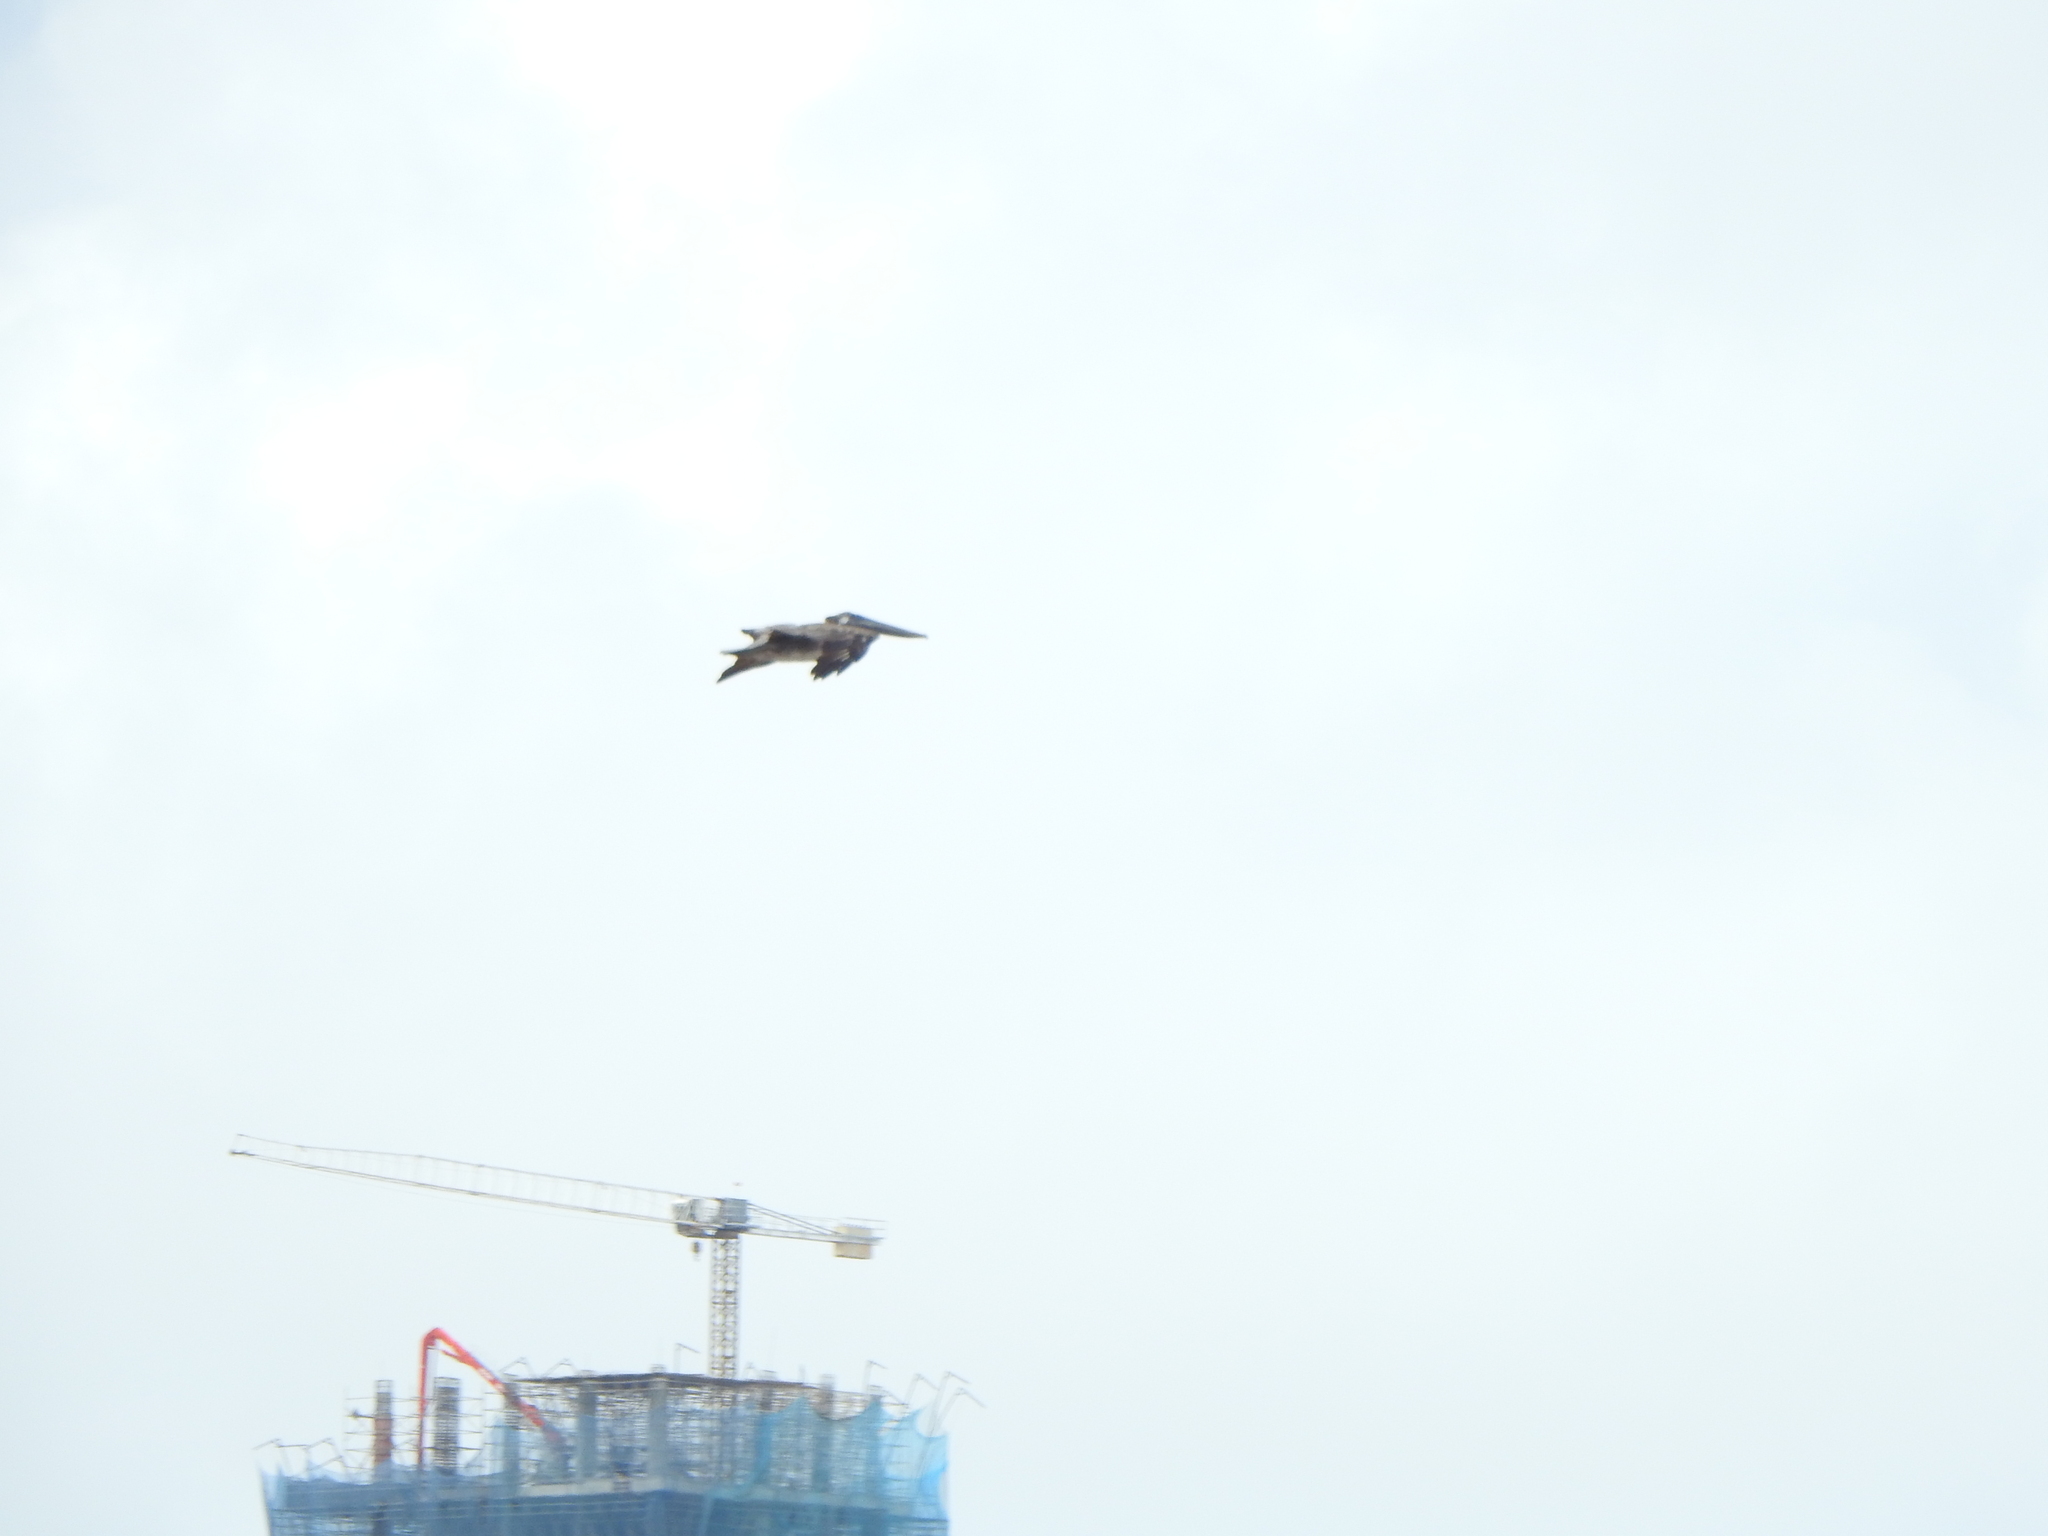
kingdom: Animalia
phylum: Chordata
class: Aves
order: Pelecaniformes
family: Pelecanidae
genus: Pelecanus
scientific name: Pelecanus occidentalis
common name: Brown pelican
